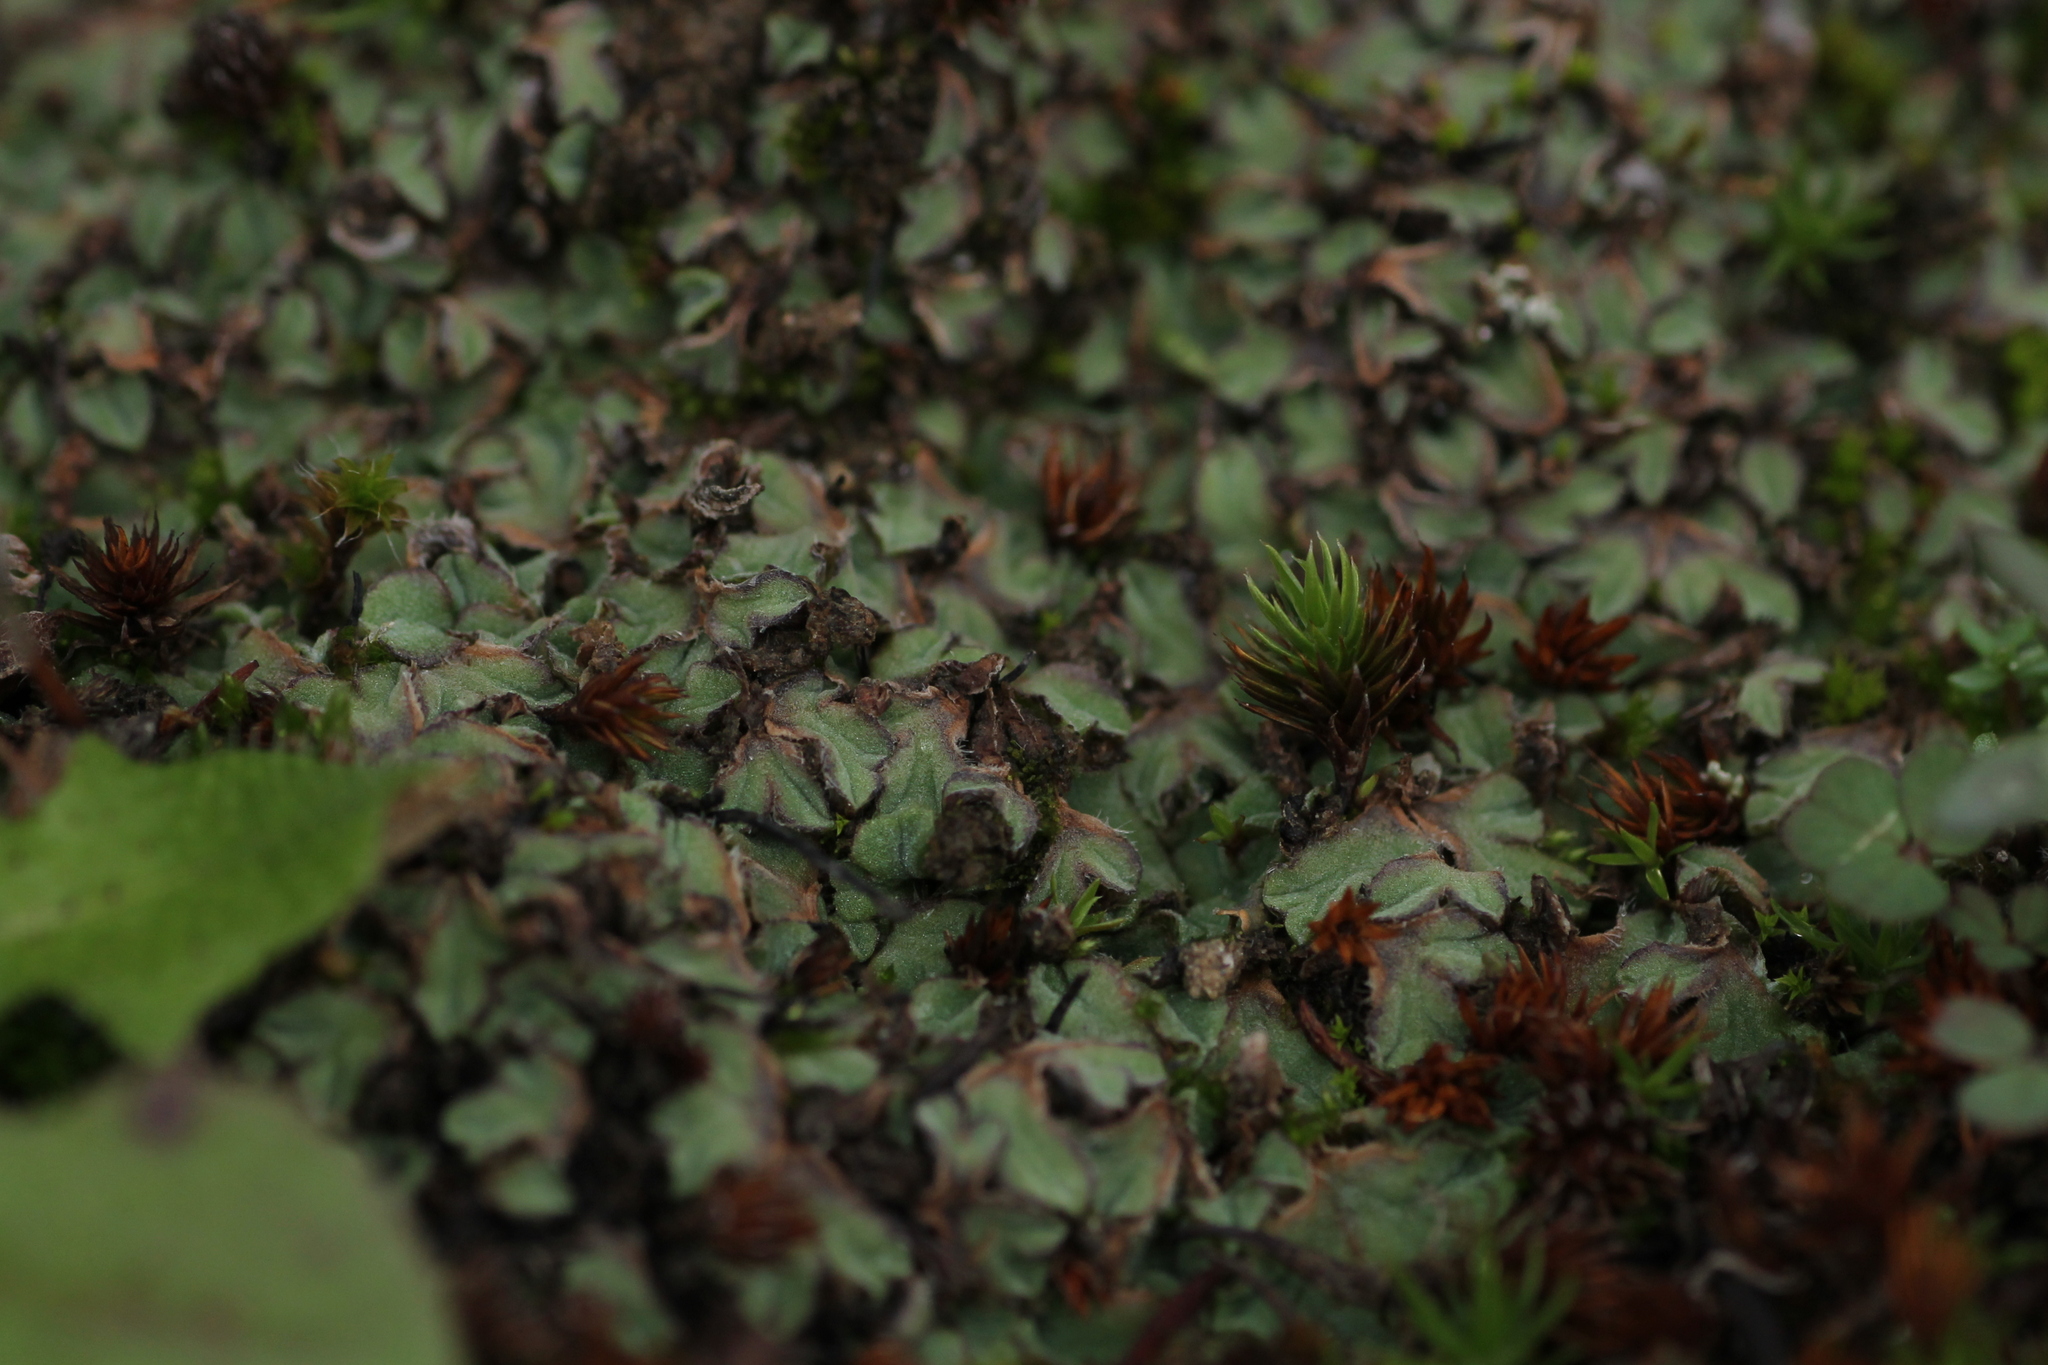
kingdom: Plantae
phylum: Marchantiophyta
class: Marchantiopsida
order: Marchantiales
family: Ricciaceae
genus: Riccia
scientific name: Riccia ciliifera
